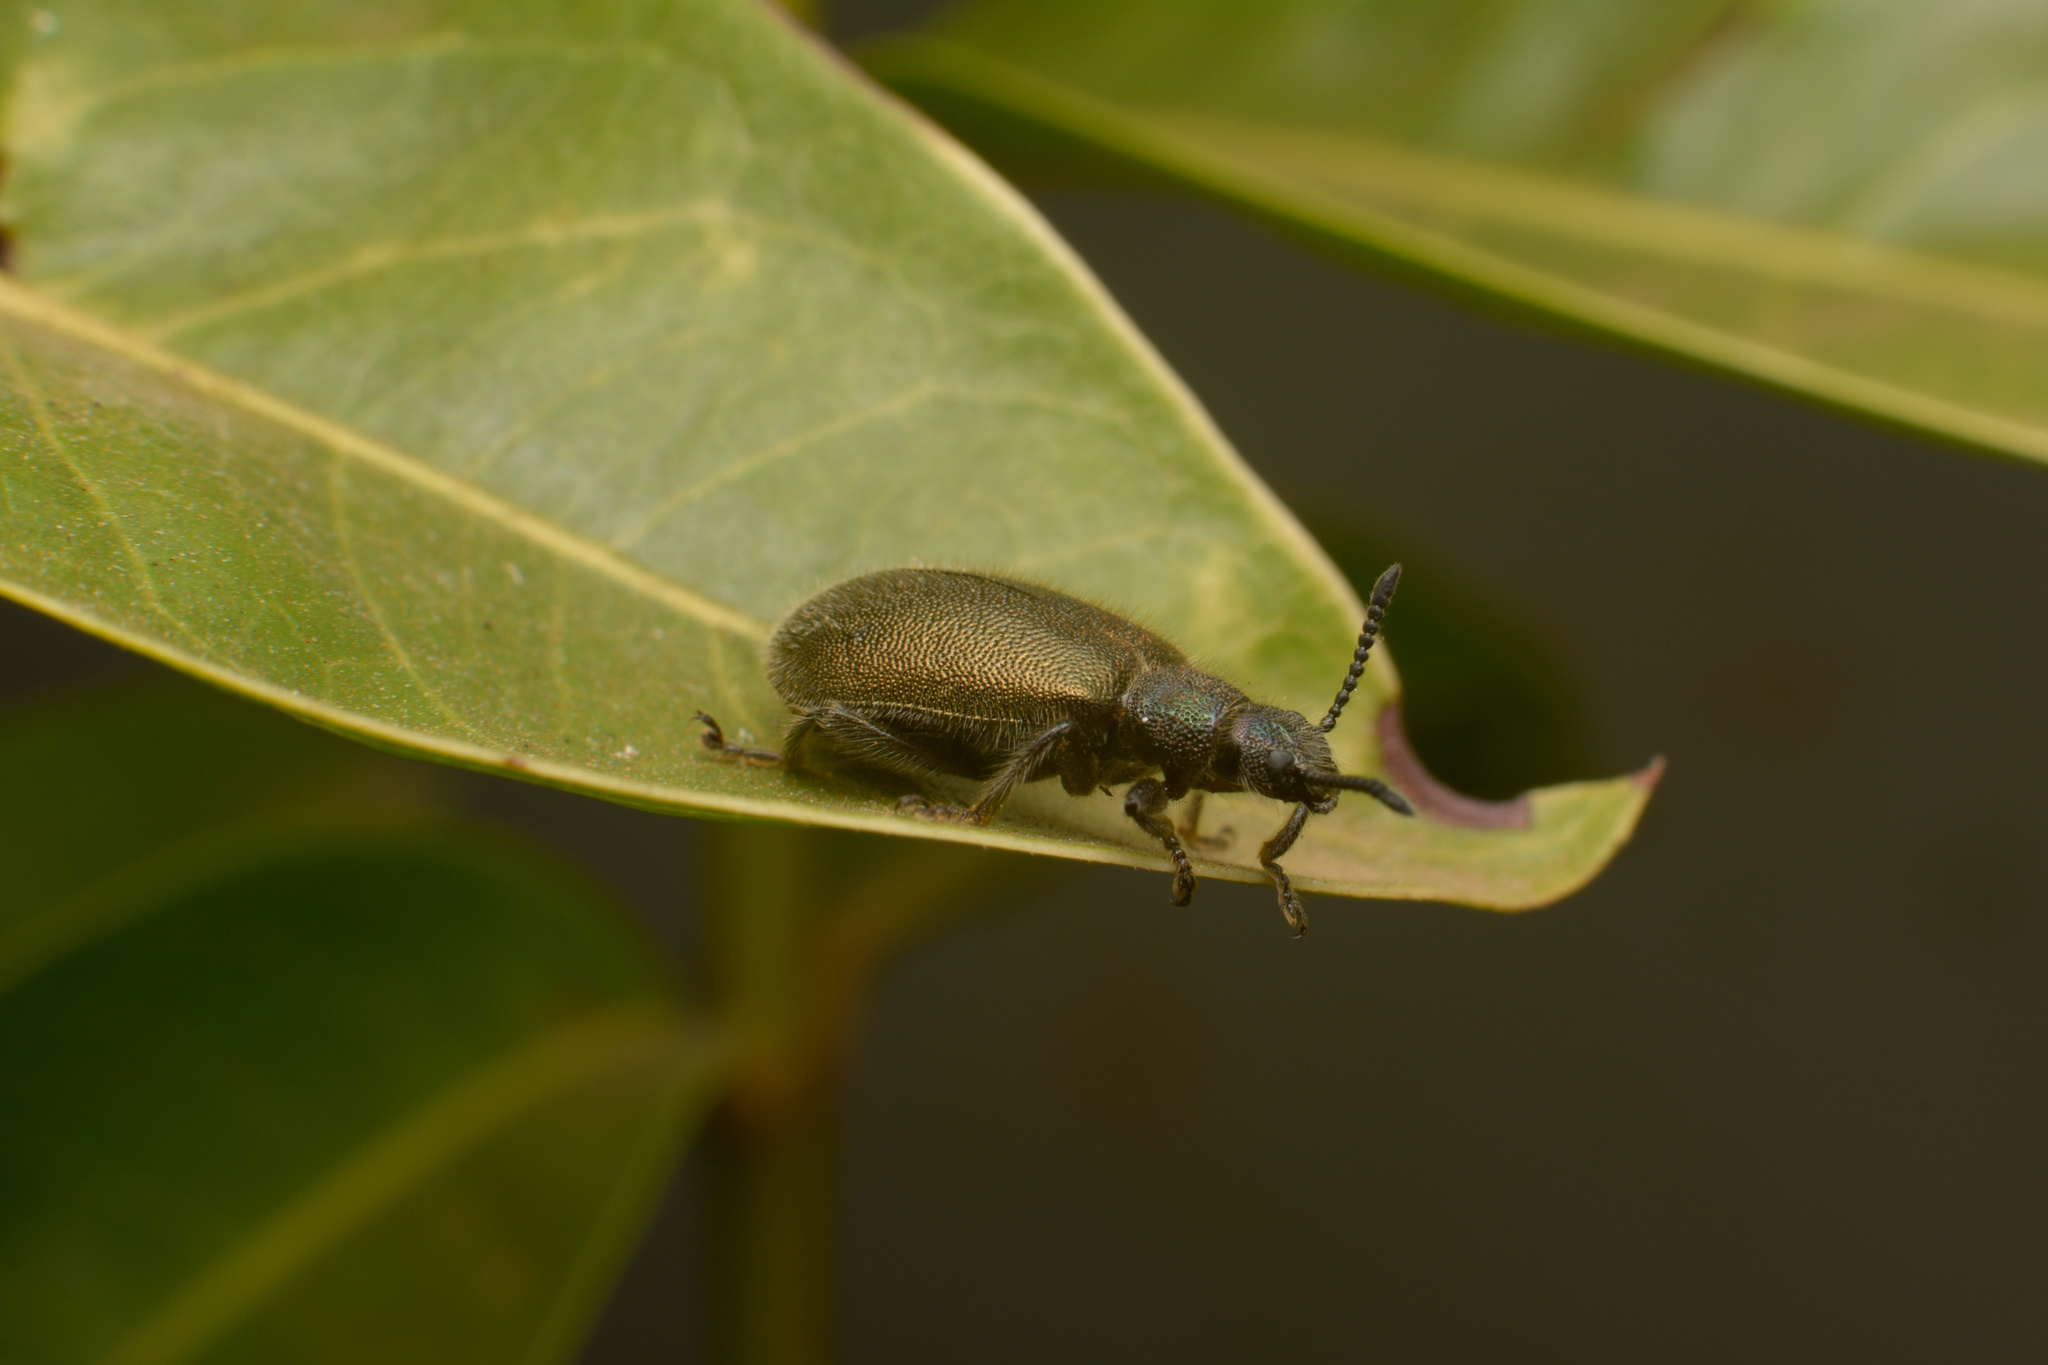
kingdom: Animalia
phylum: Arthropoda
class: Insecta
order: Coleoptera
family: Tenebrionidae
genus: Lagria
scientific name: Lagria villosa
